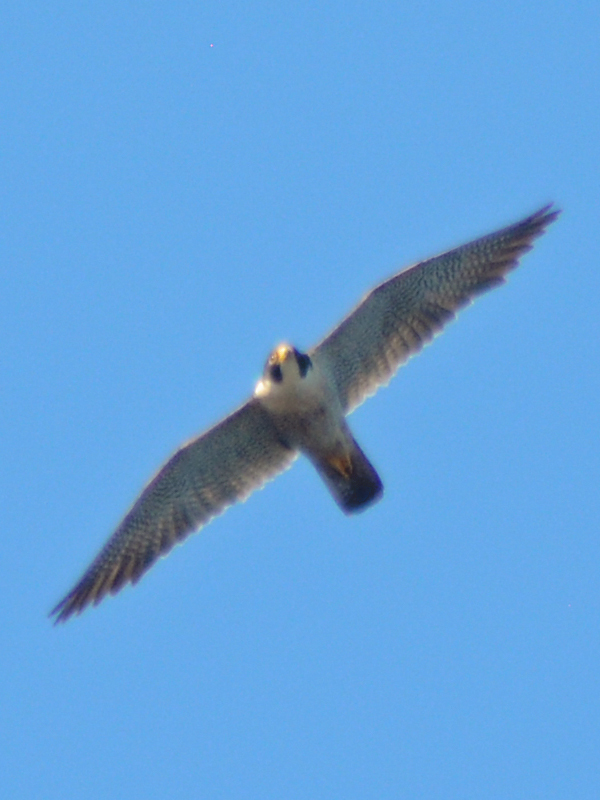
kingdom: Animalia
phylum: Chordata
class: Aves
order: Falconiformes
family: Falconidae
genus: Falco
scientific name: Falco peregrinus
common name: Peregrine falcon
